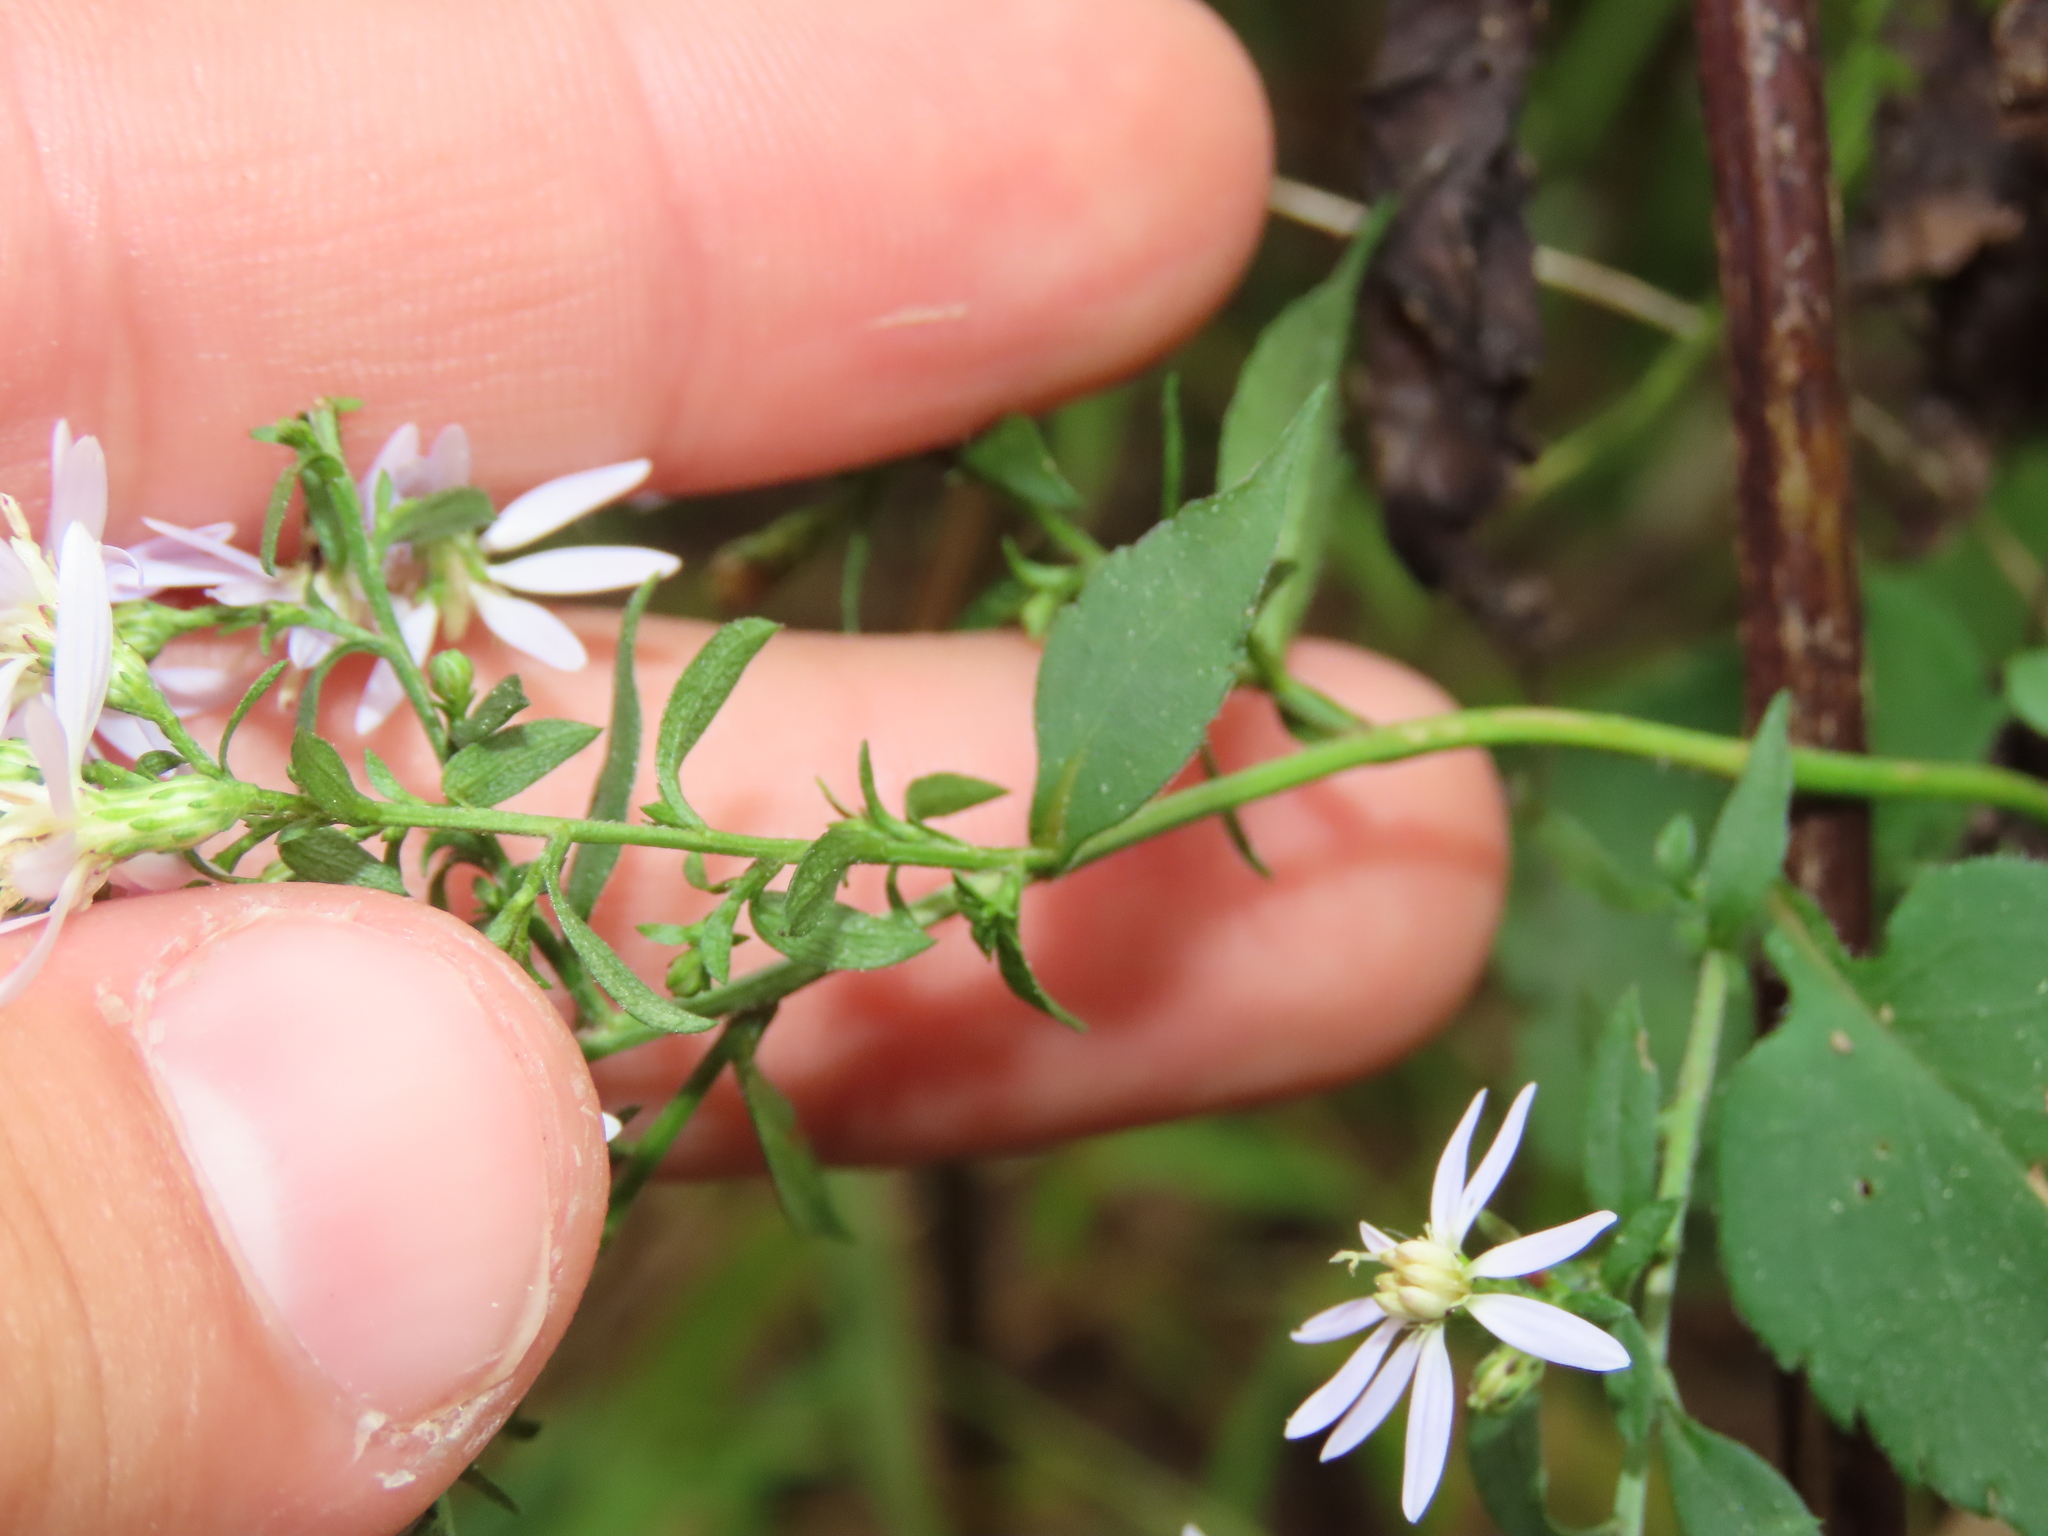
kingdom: Plantae
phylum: Tracheophyta
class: Magnoliopsida
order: Asterales
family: Asteraceae
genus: Symphyotrichum
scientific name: Symphyotrichum cordifolium
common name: Beeweed
